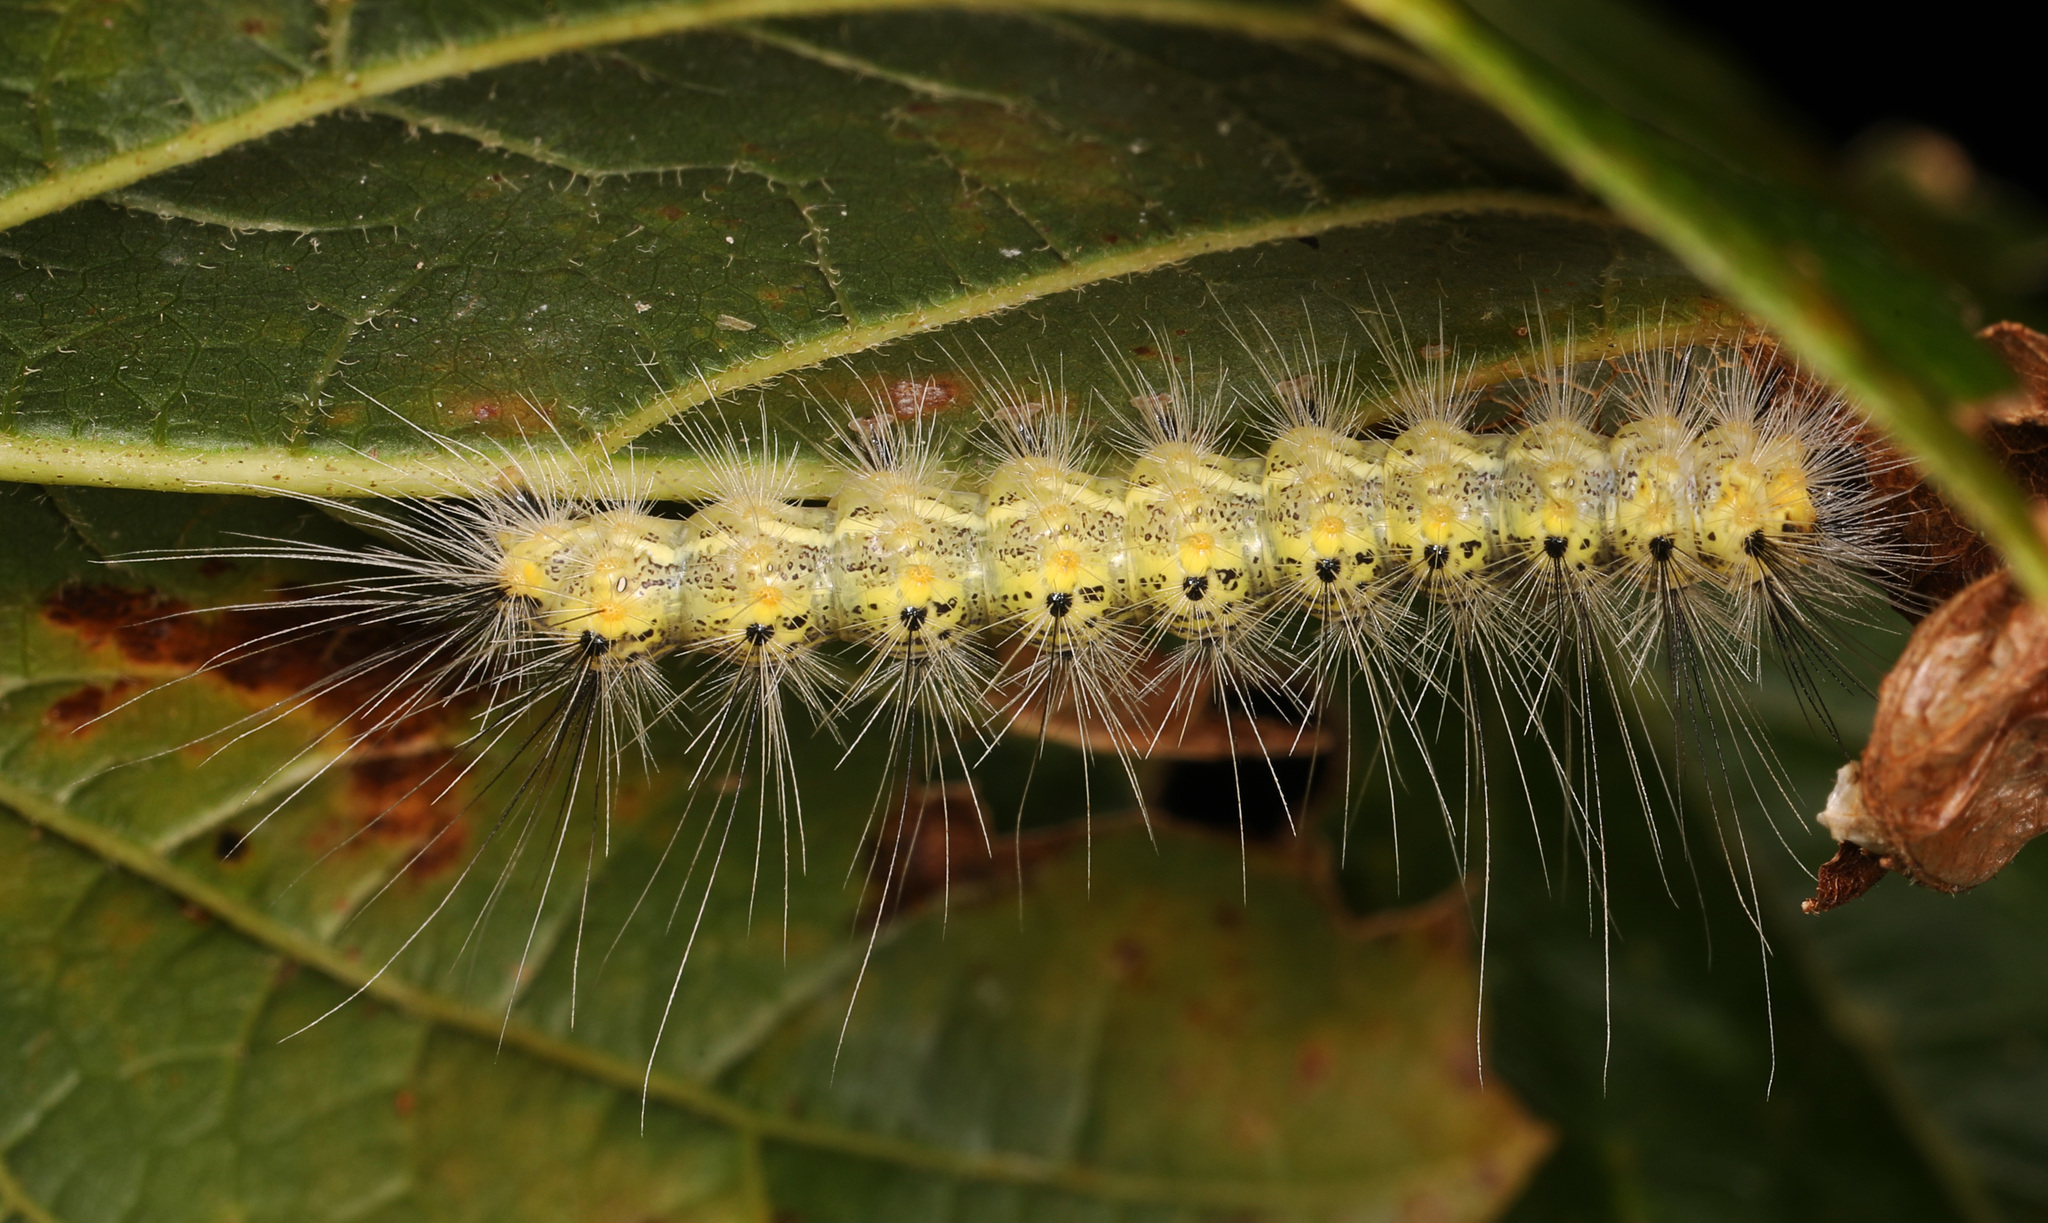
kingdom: Animalia
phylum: Arthropoda
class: Insecta
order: Lepidoptera
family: Erebidae
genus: Hyphantria
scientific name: Hyphantria cunea
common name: American white moth
